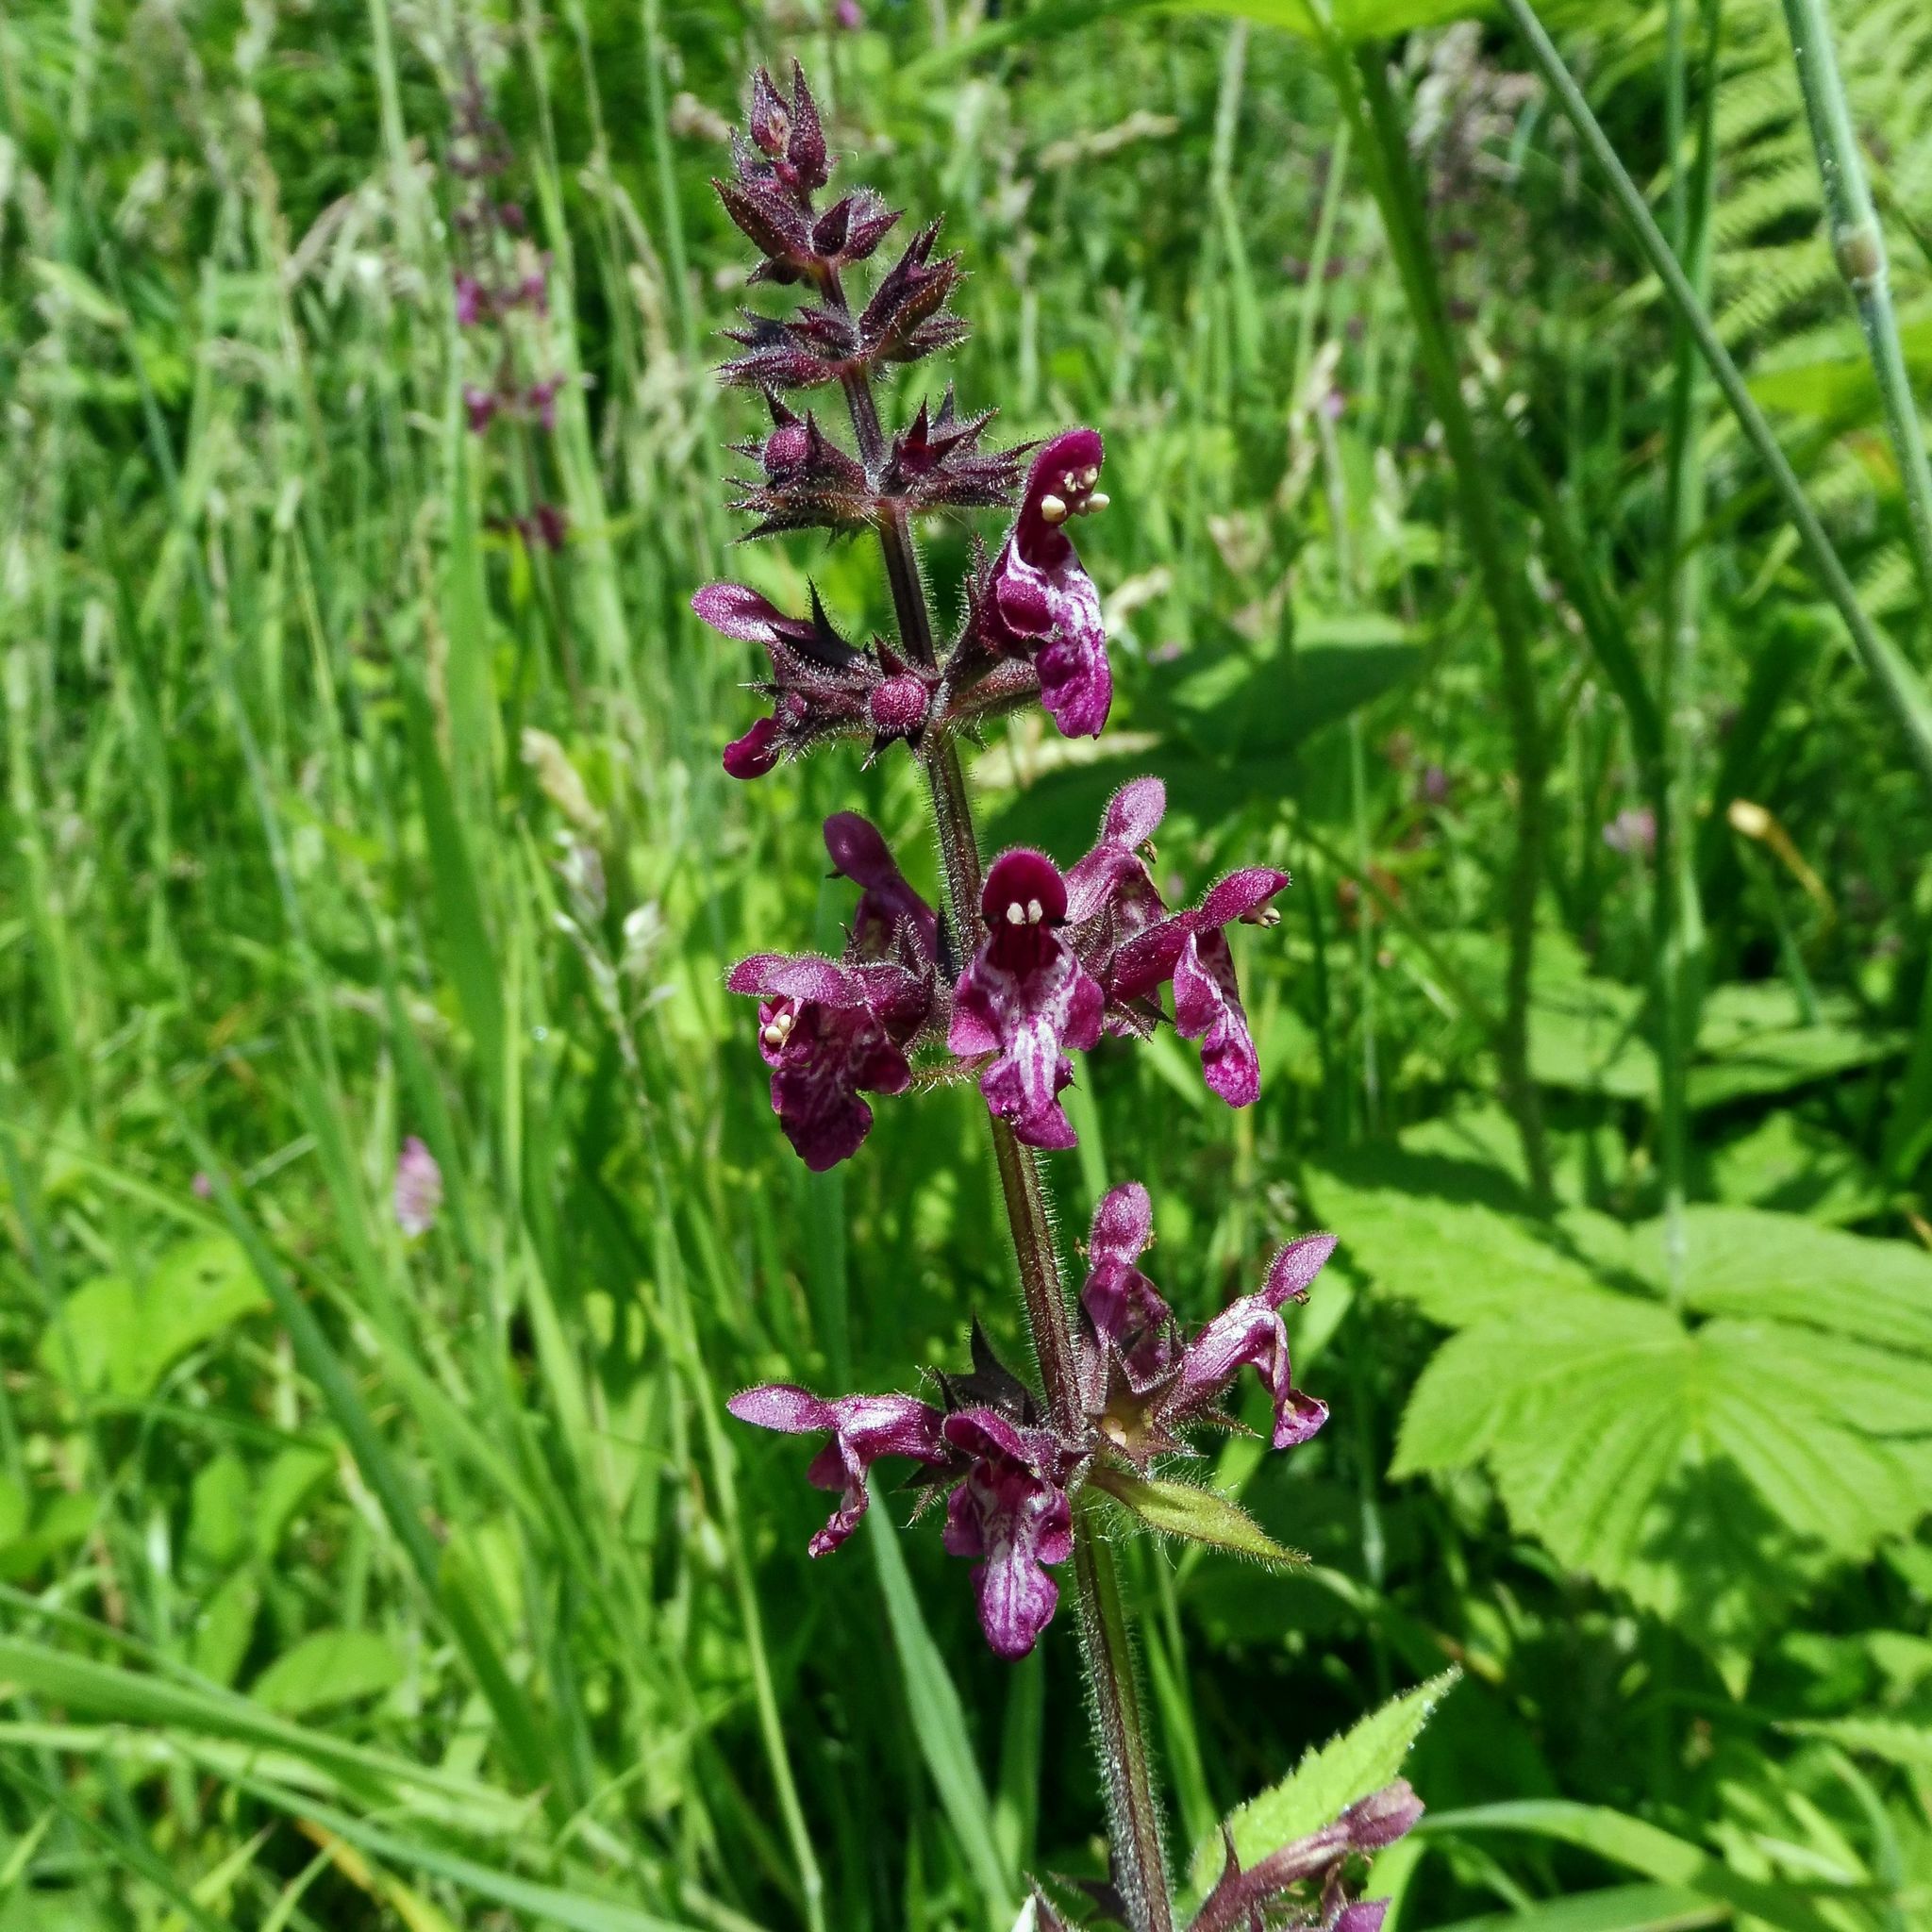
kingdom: Plantae
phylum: Tracheophyta
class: Magnoliopsida
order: Lamiales
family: Lamiaceae
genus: Stachys
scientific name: Stachys sylvatica
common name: Hedge woundwort
